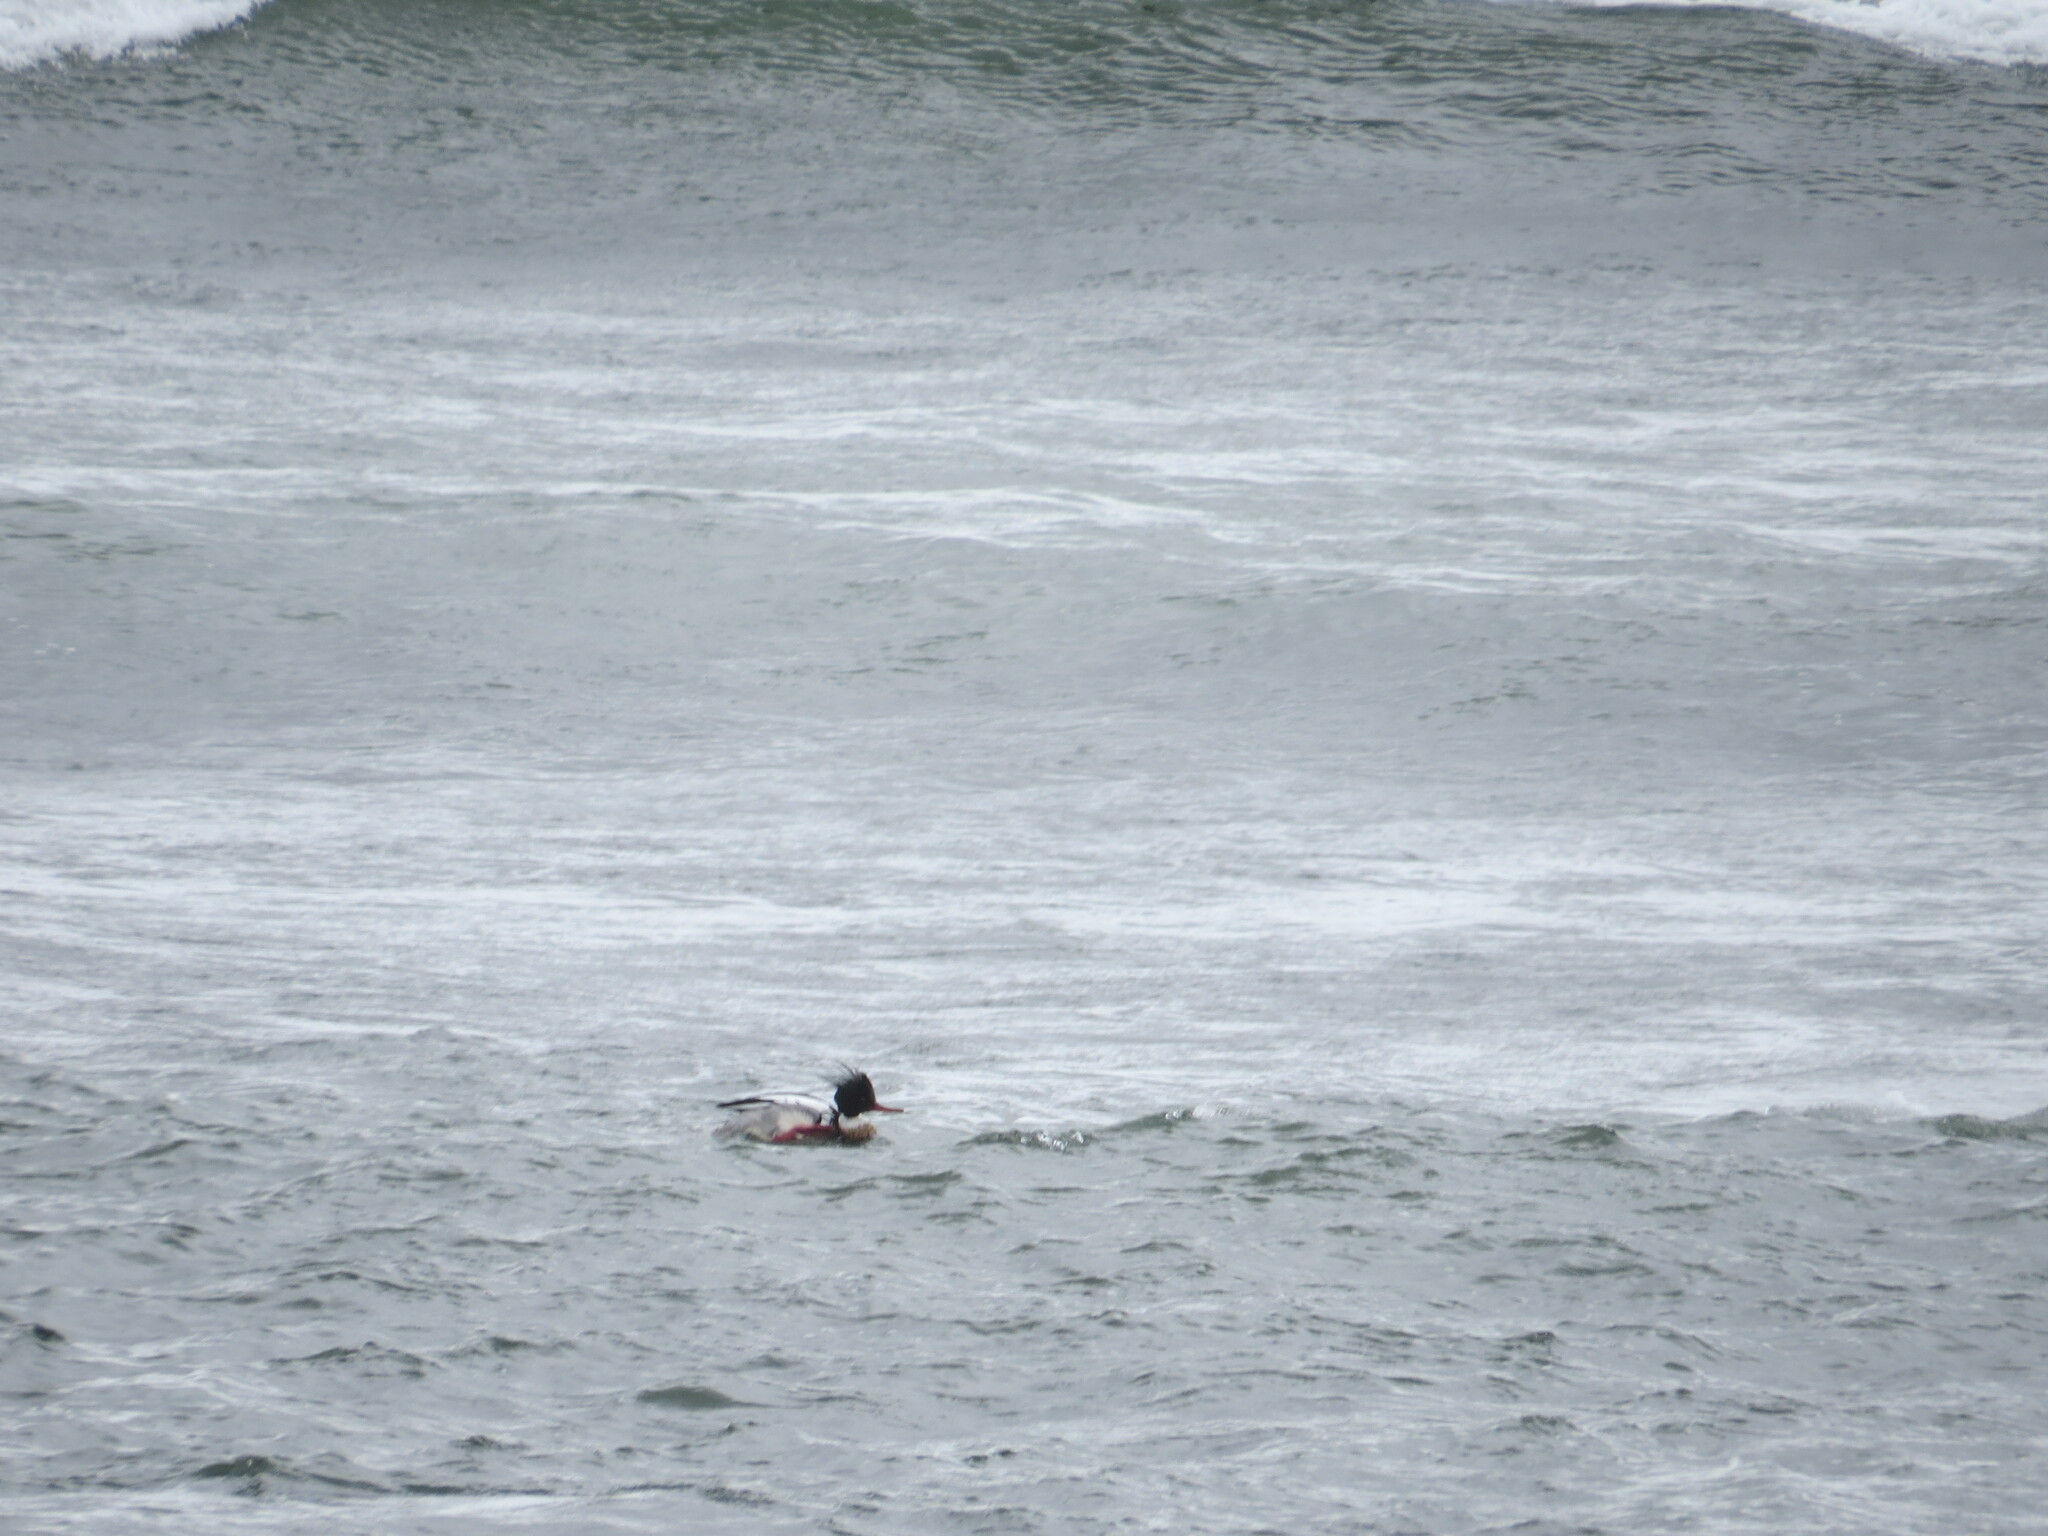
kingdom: Animalia
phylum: Chordata
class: Aves
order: Anseriformes
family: Anatidae
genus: Mergus
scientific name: Mergus serrator
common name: Red-breasted merganser
